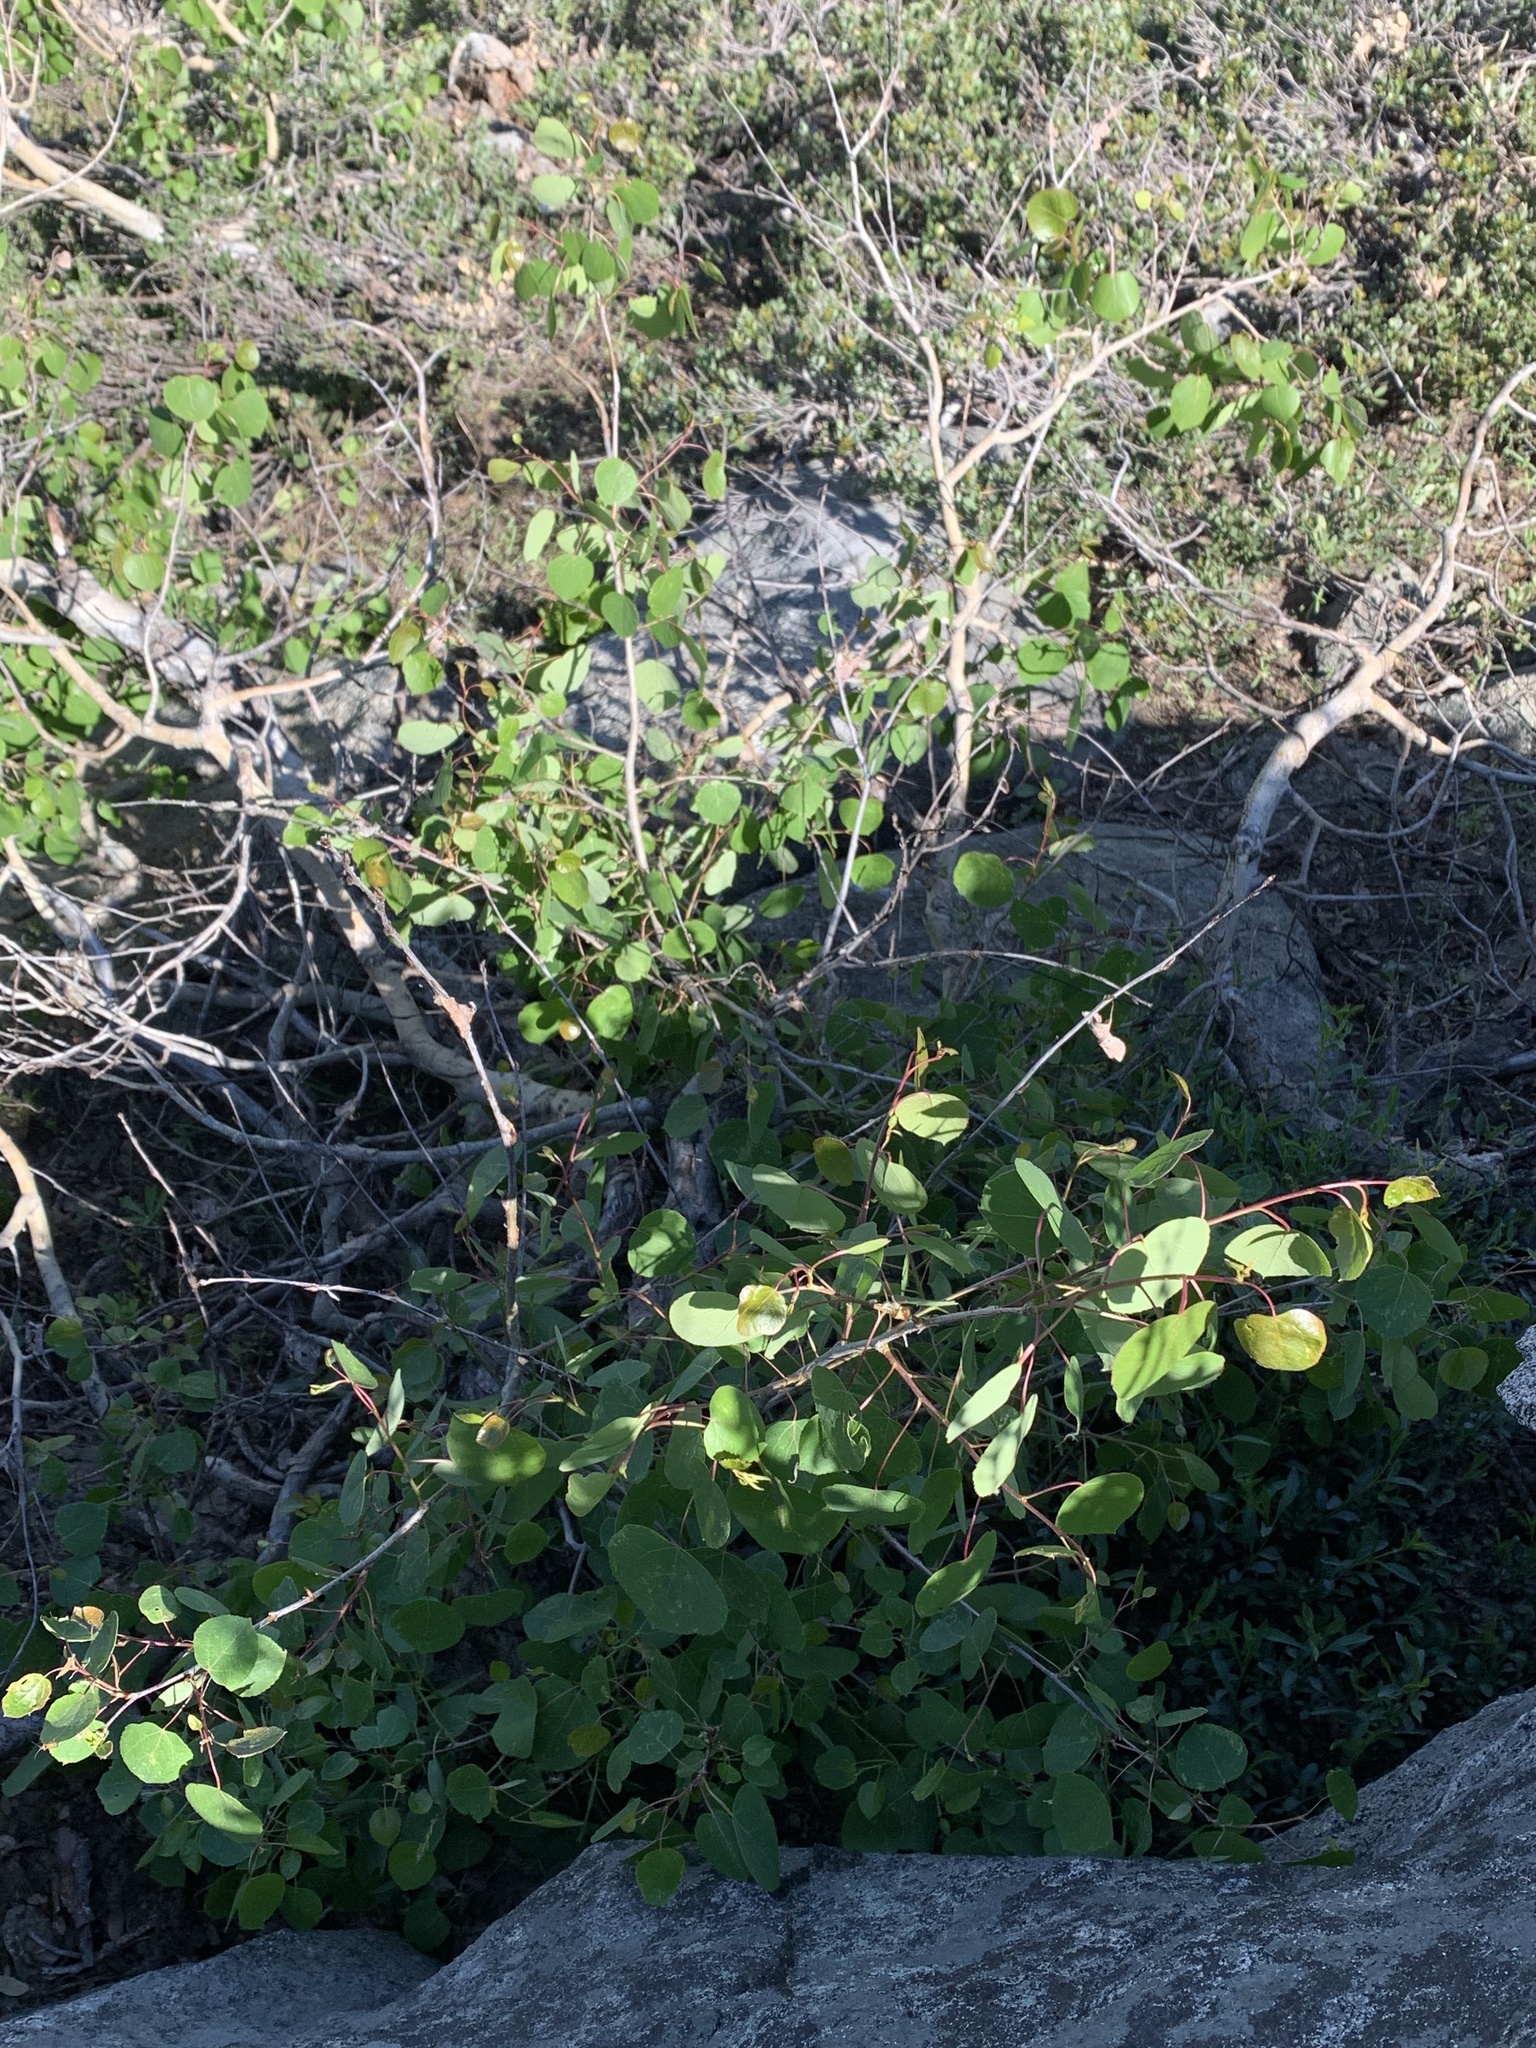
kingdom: Plantae
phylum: Tracheophyta
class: Magnoliopsida
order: Malpighiales
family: Salicaceae
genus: Populus
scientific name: Populus tremuloides
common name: Quaking aspen
